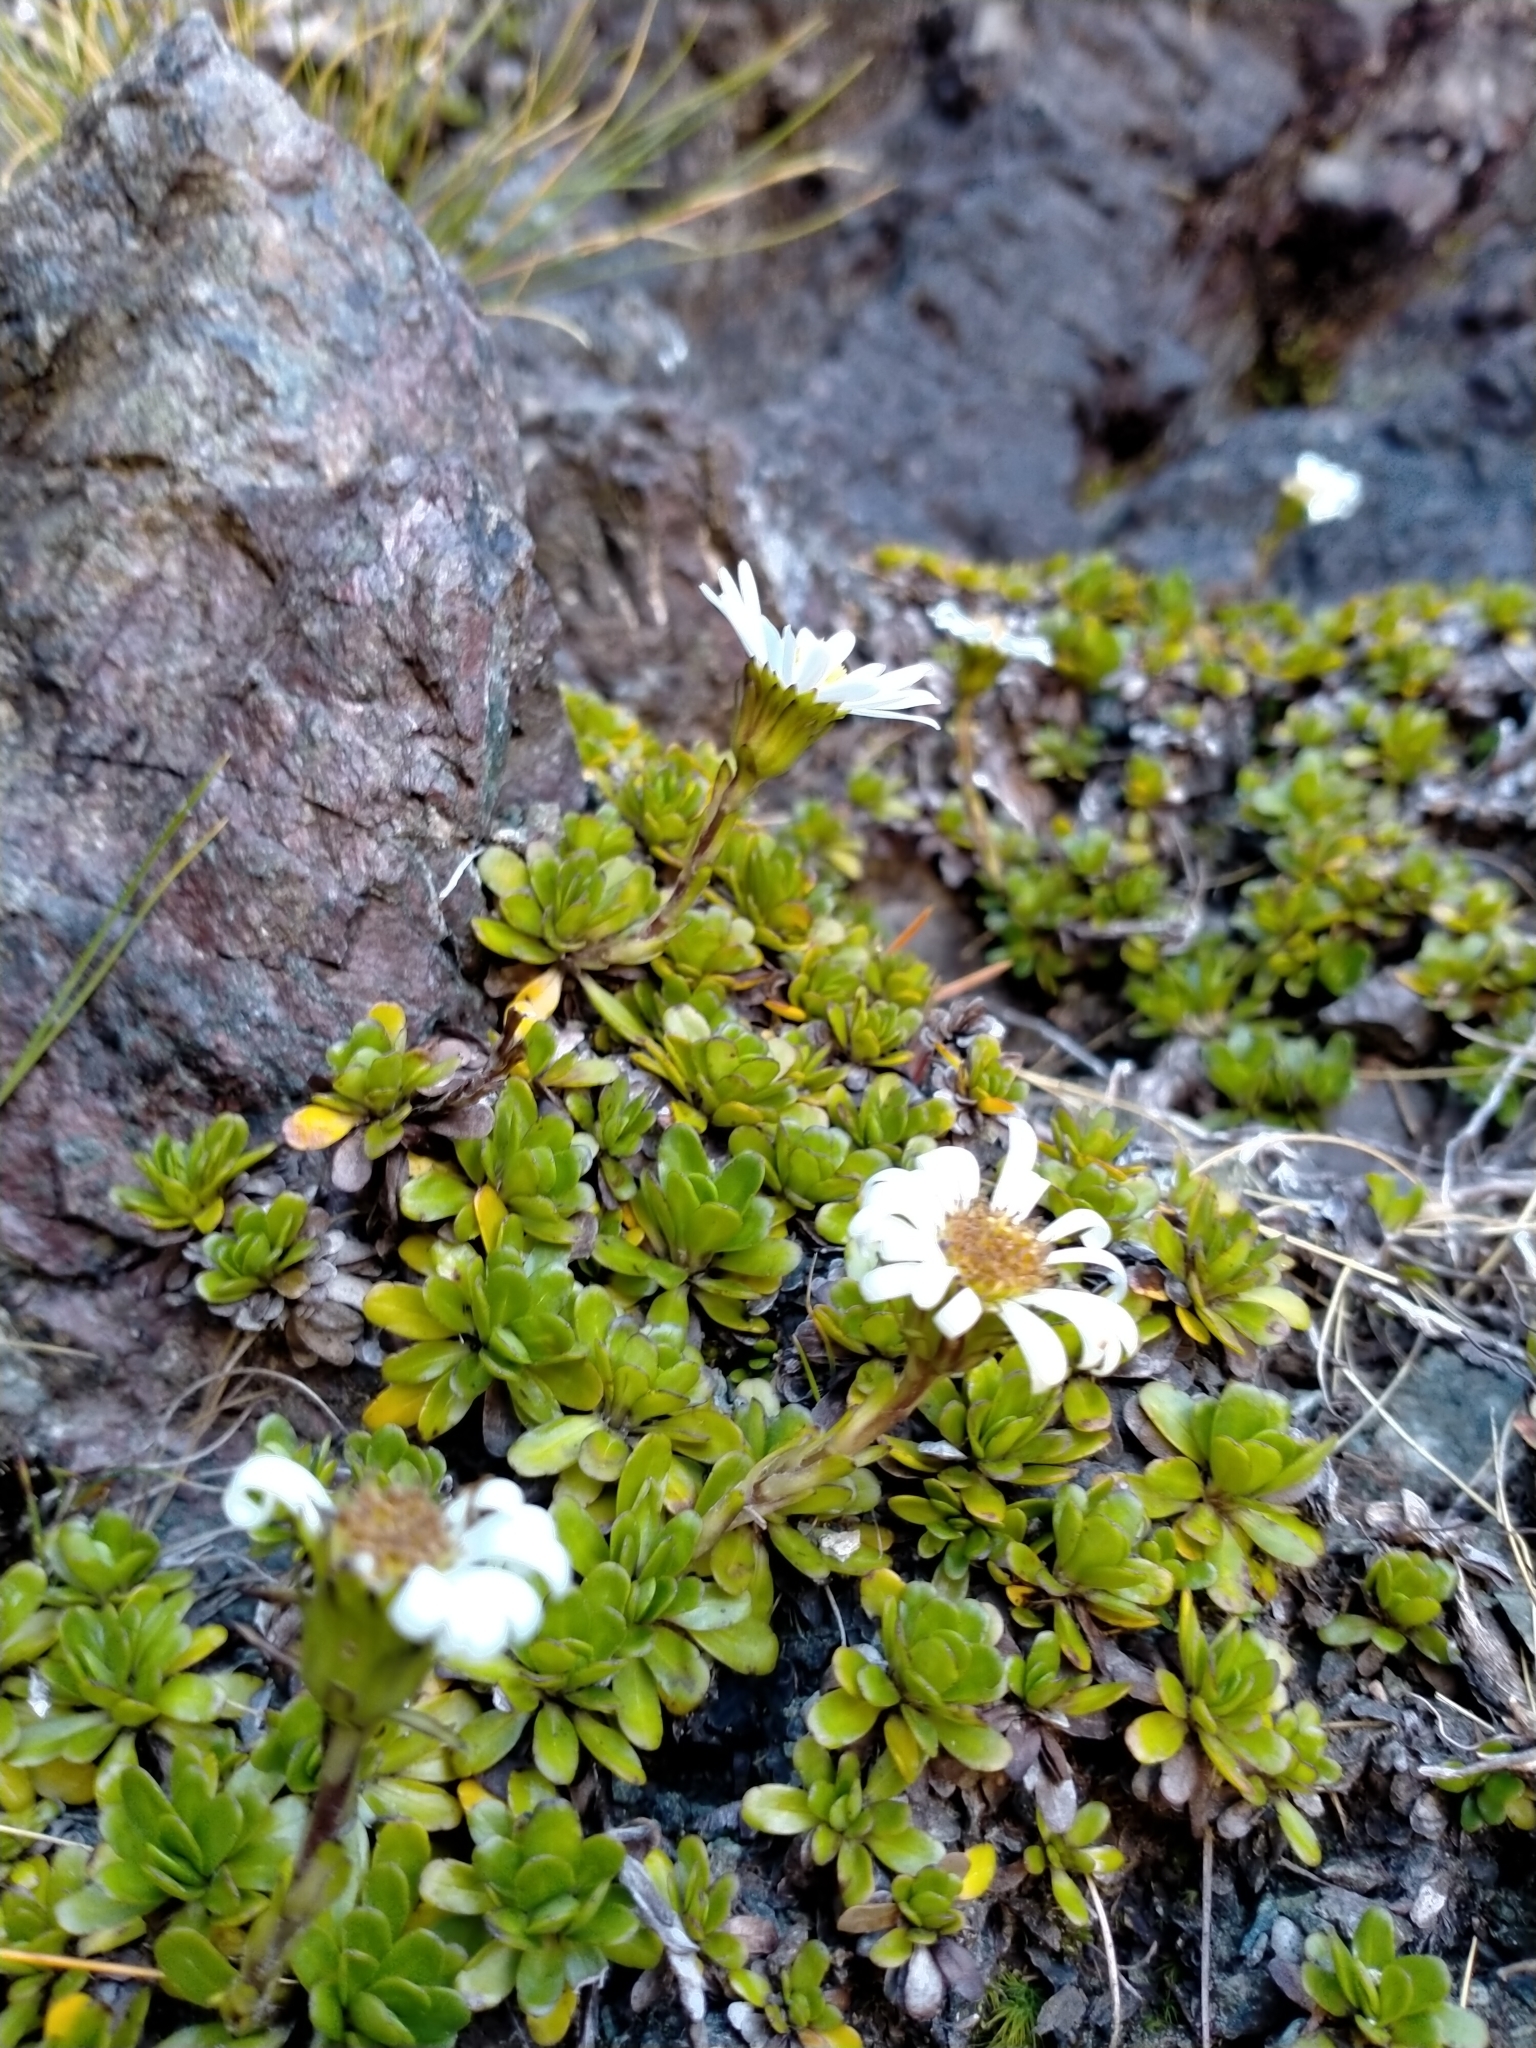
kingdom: Plantae
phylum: Tracheophyta
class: Magnoliopsida
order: Asterales
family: Asteraceae
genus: Celmisia
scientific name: Celmisia bellidioides
